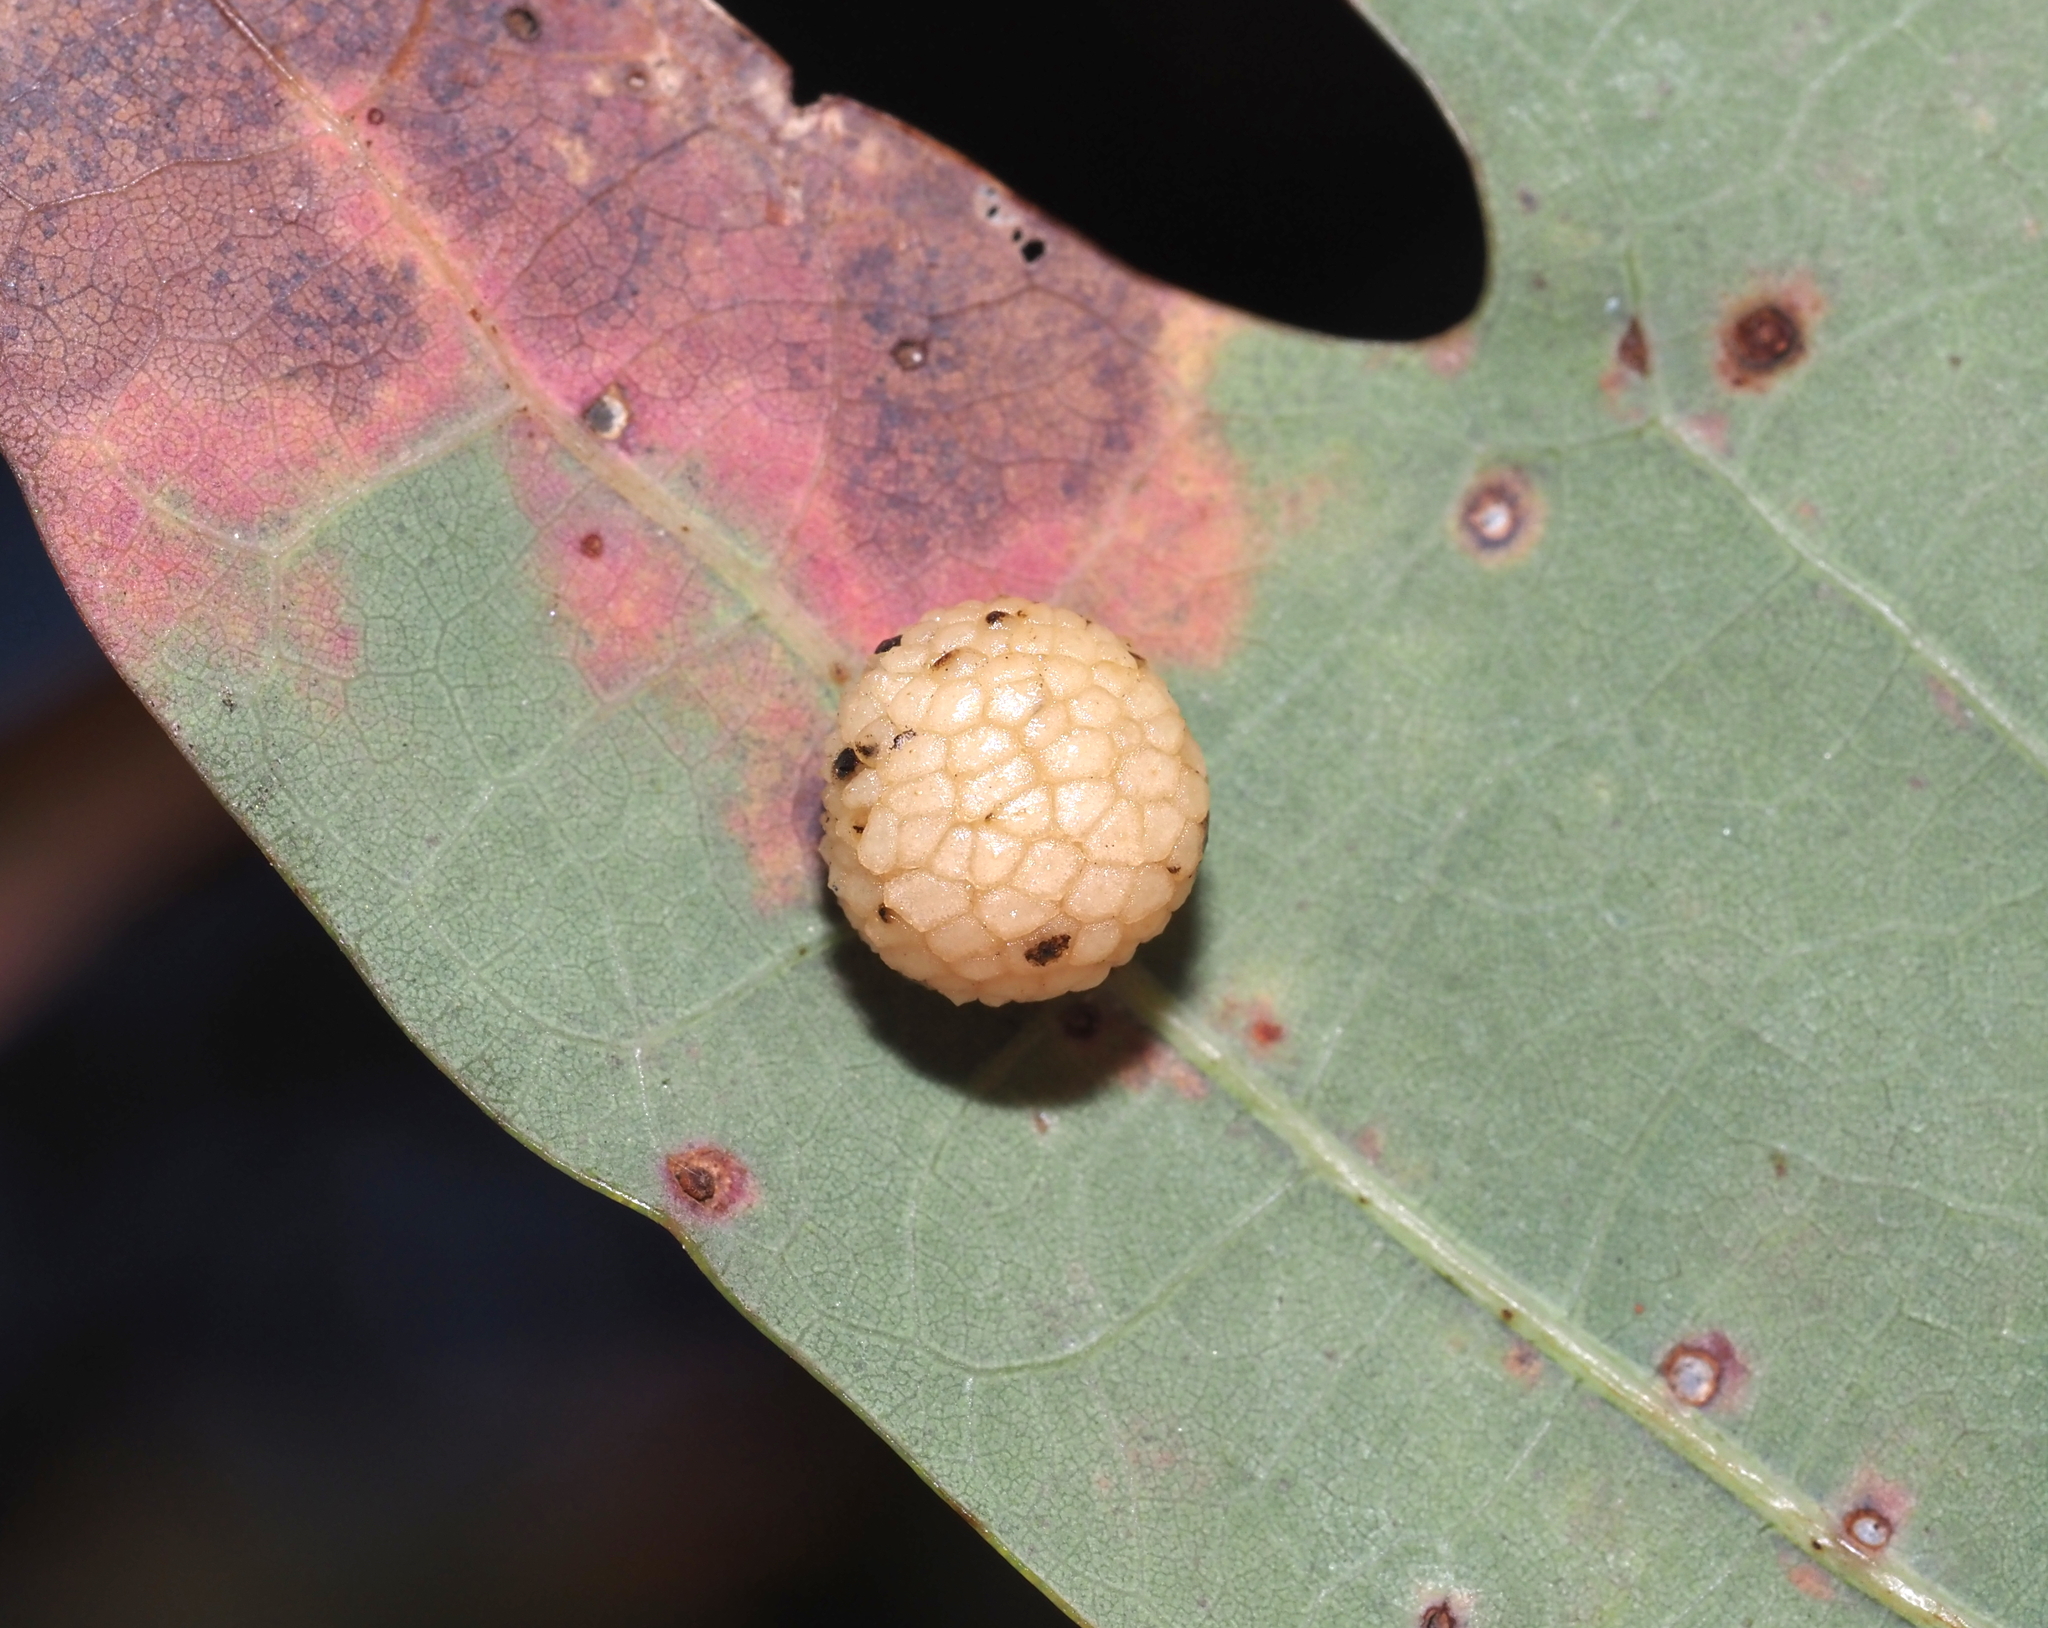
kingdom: Animalia
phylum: Arthropoda
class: Insecta
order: Hymenoptera
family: Cynipidae
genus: Acraspis
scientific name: Acraspis
